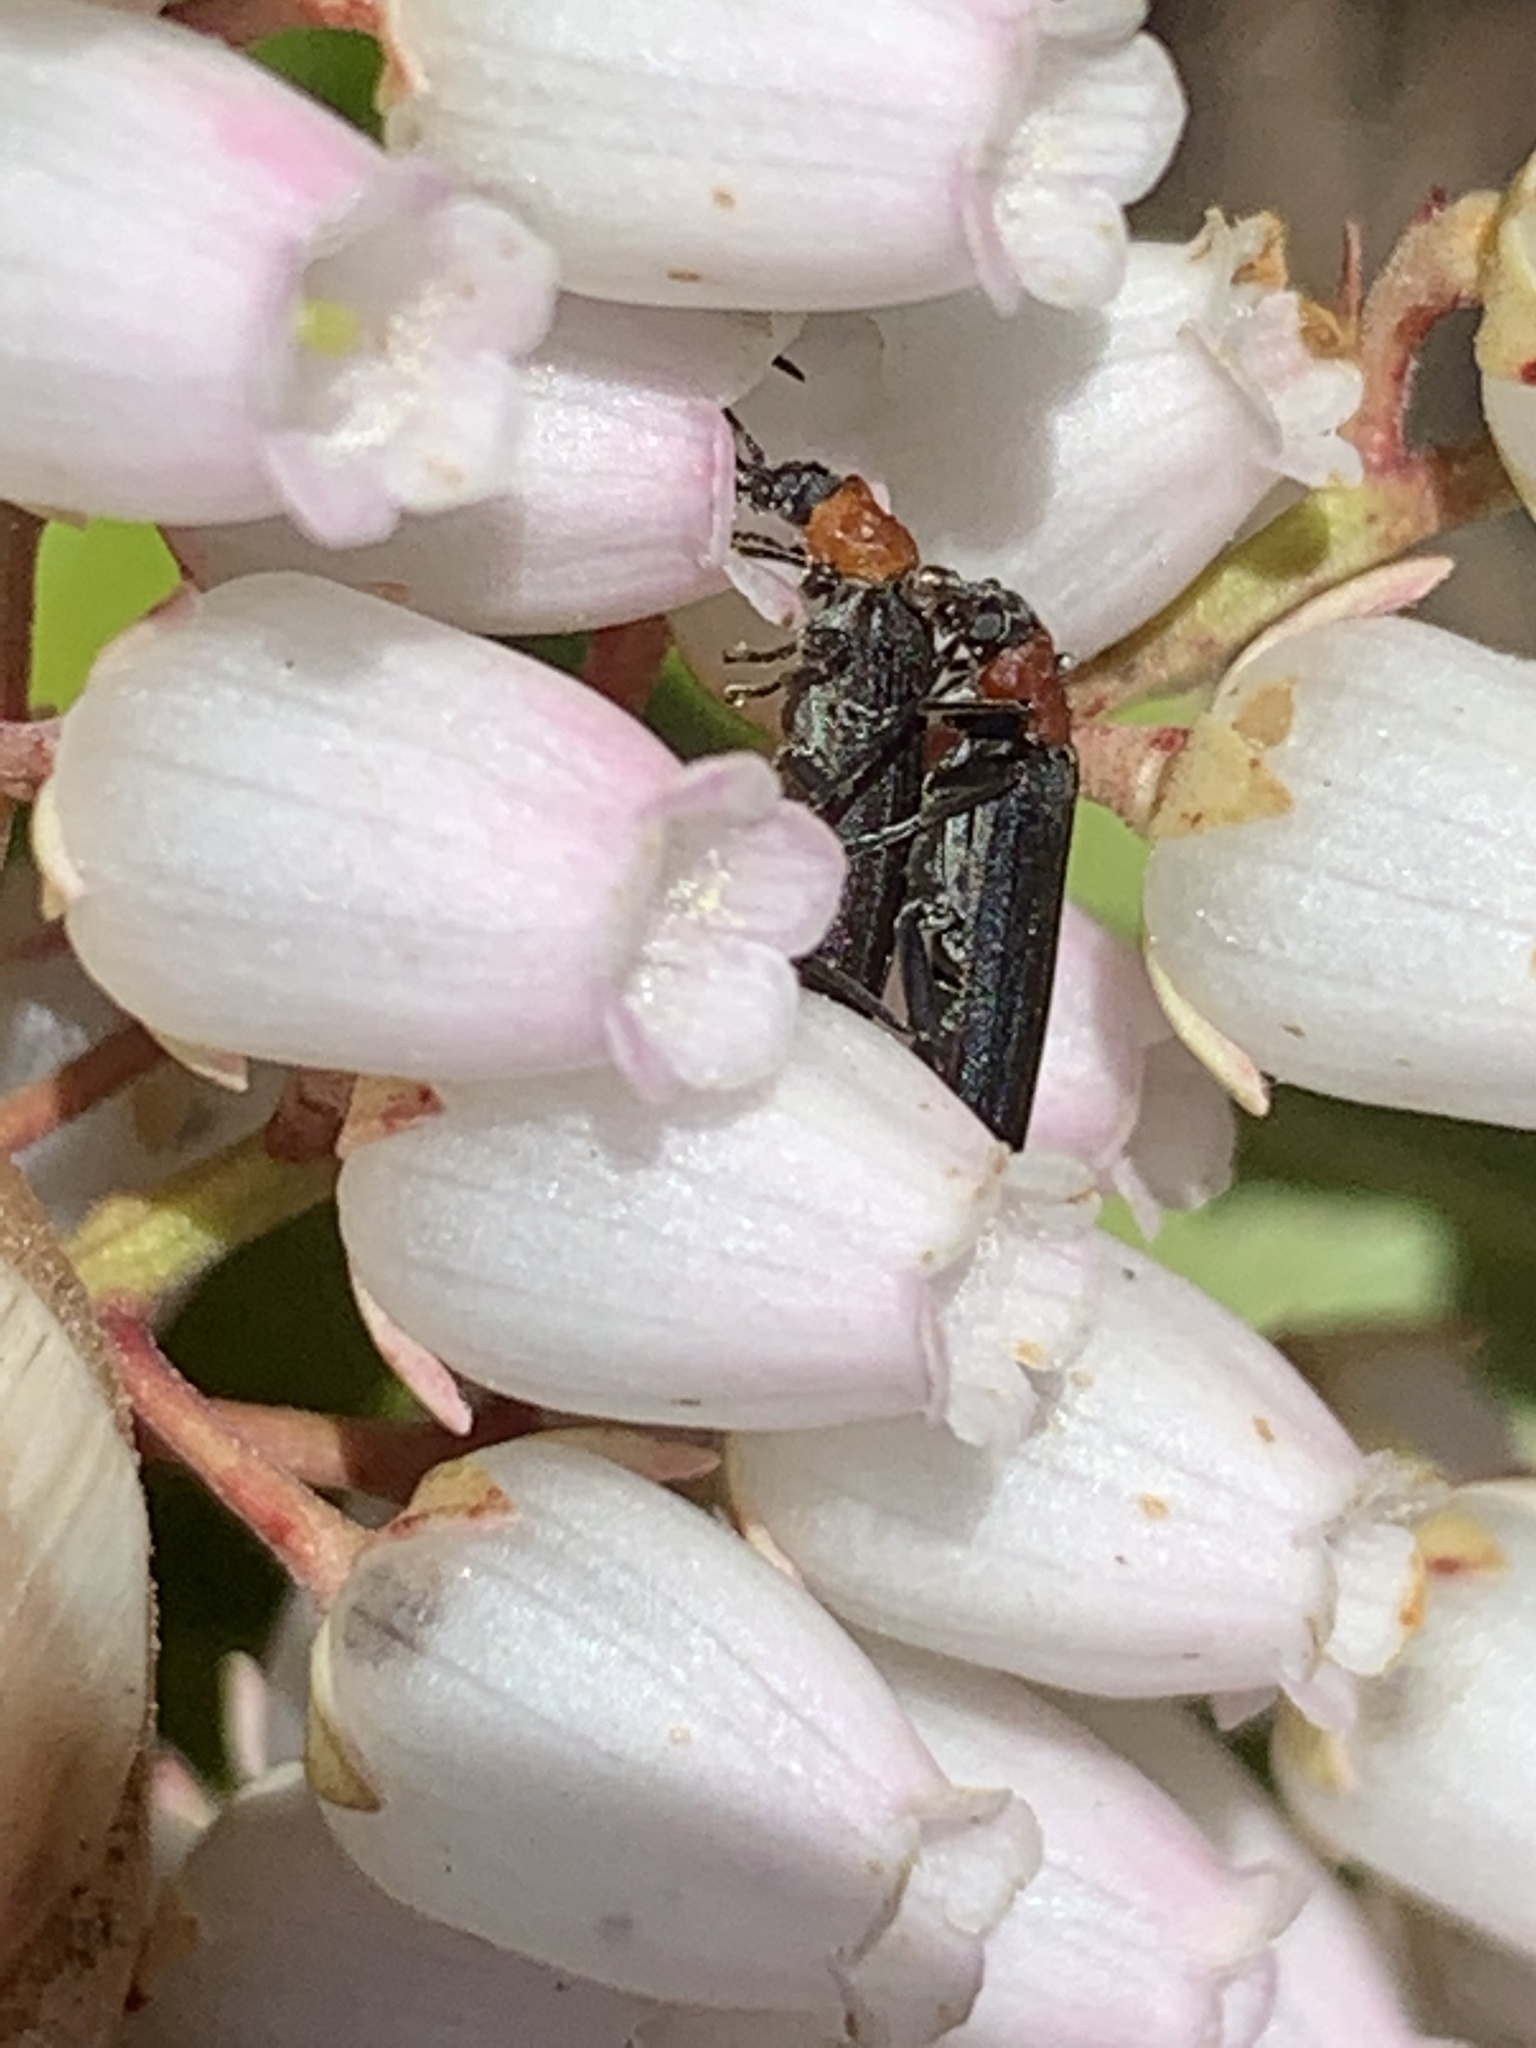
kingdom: Animalia
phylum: Arthropoda
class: Insecta
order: Coleoptera
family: Oedemeridae
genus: Ischnomera
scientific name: Ischnomera
